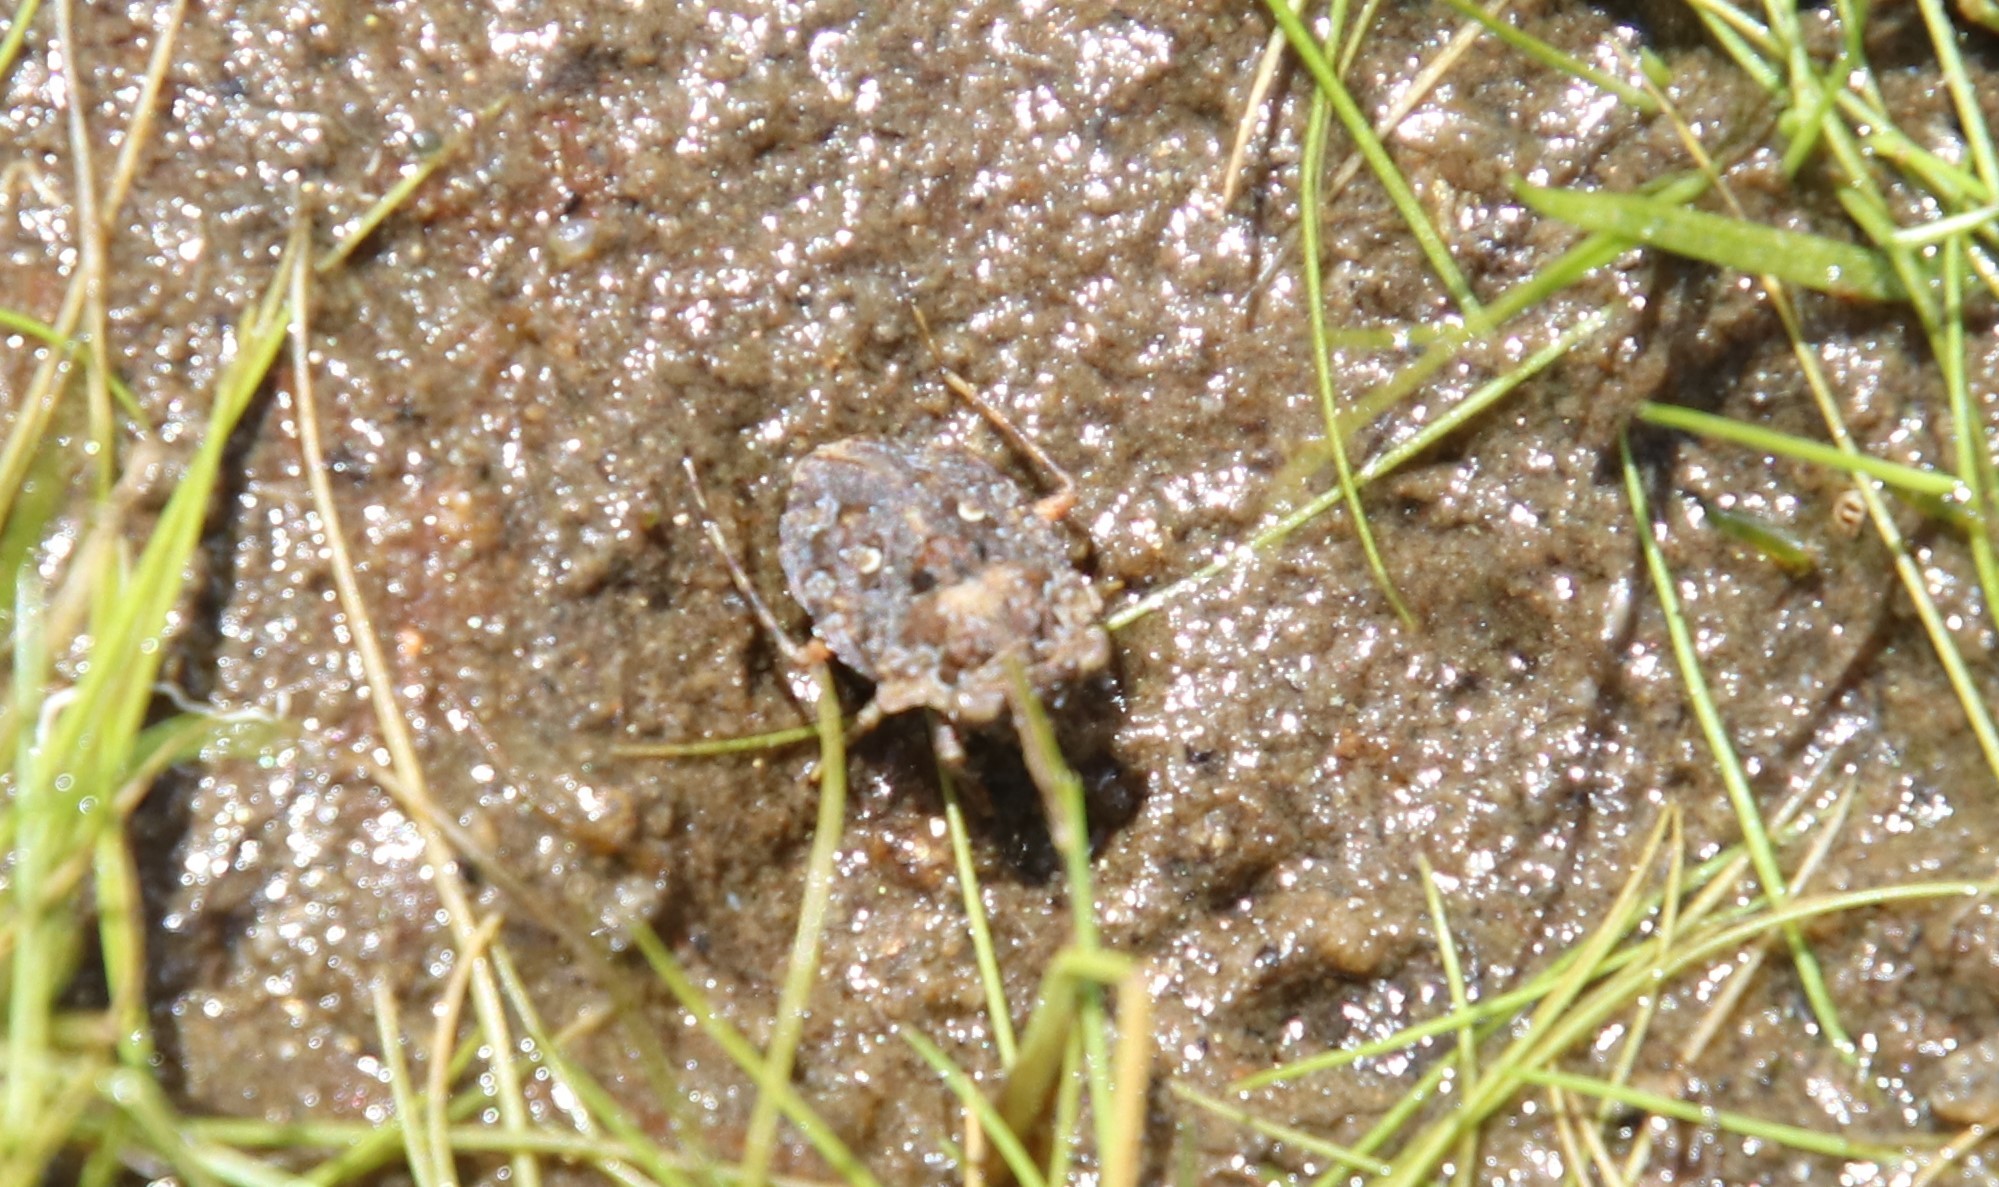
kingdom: Animalia
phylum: Arthropoda
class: Insecta
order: Hemiptera
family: Gelastocoridae
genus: Gelastocoris
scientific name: Gelastocoris oculatus
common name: Toad bug
